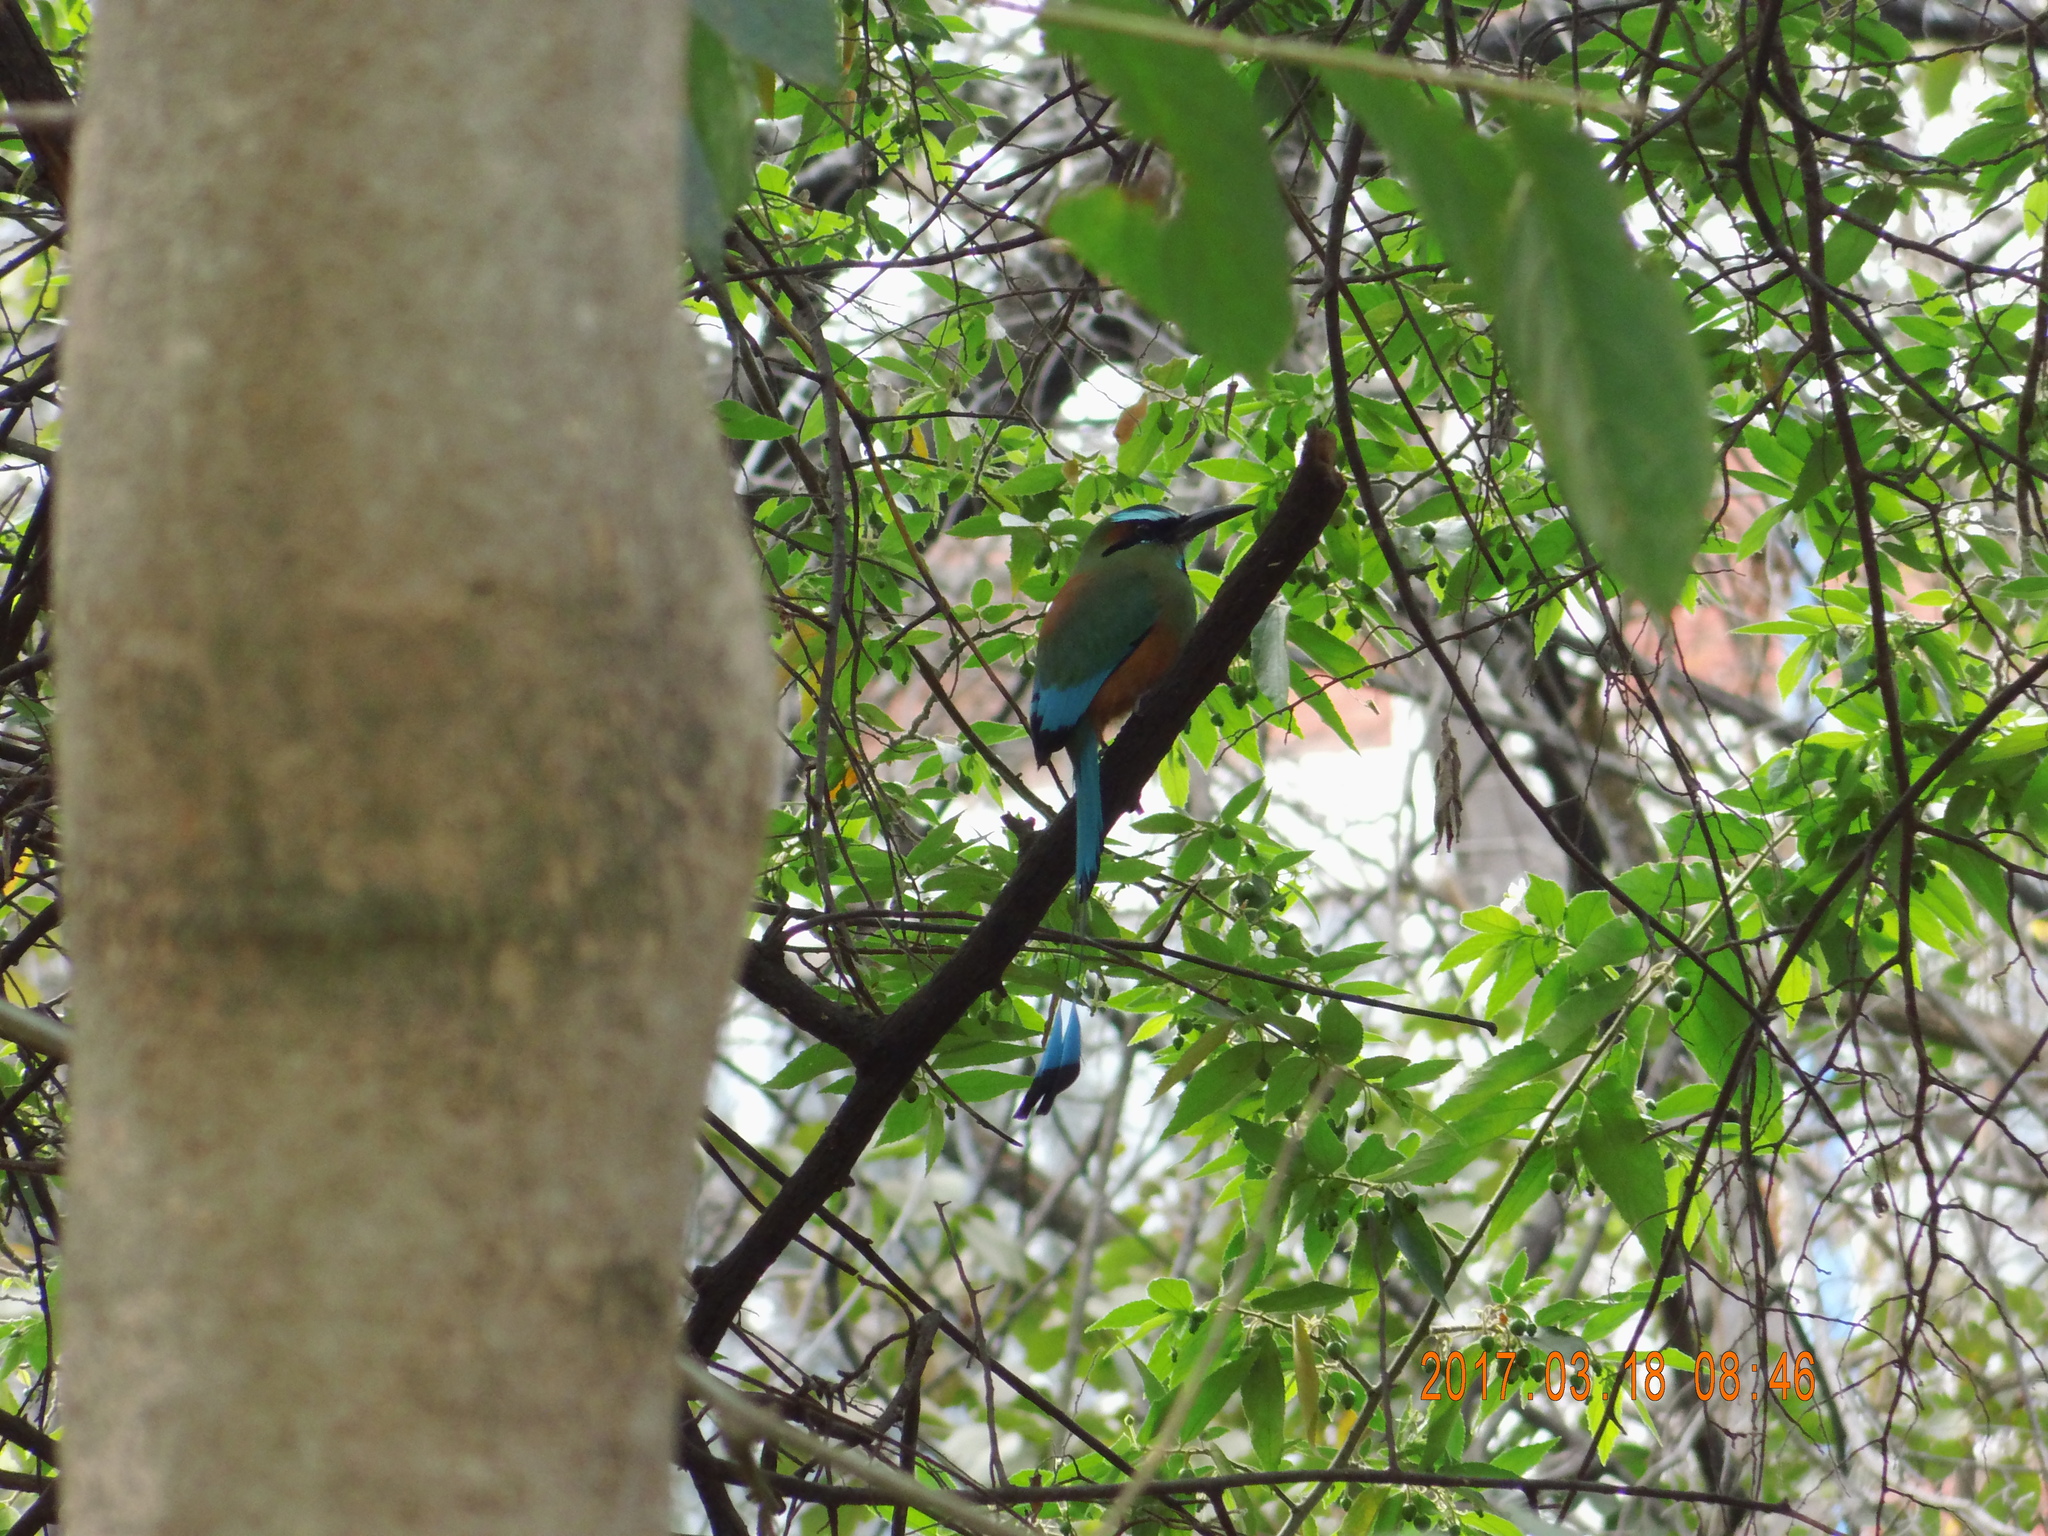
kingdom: Animalia
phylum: Chordata
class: Aves
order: Coraciiformes
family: Momotidae
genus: Eumomota
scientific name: Eumomota superciliosa
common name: Turquoise-browed motmot
